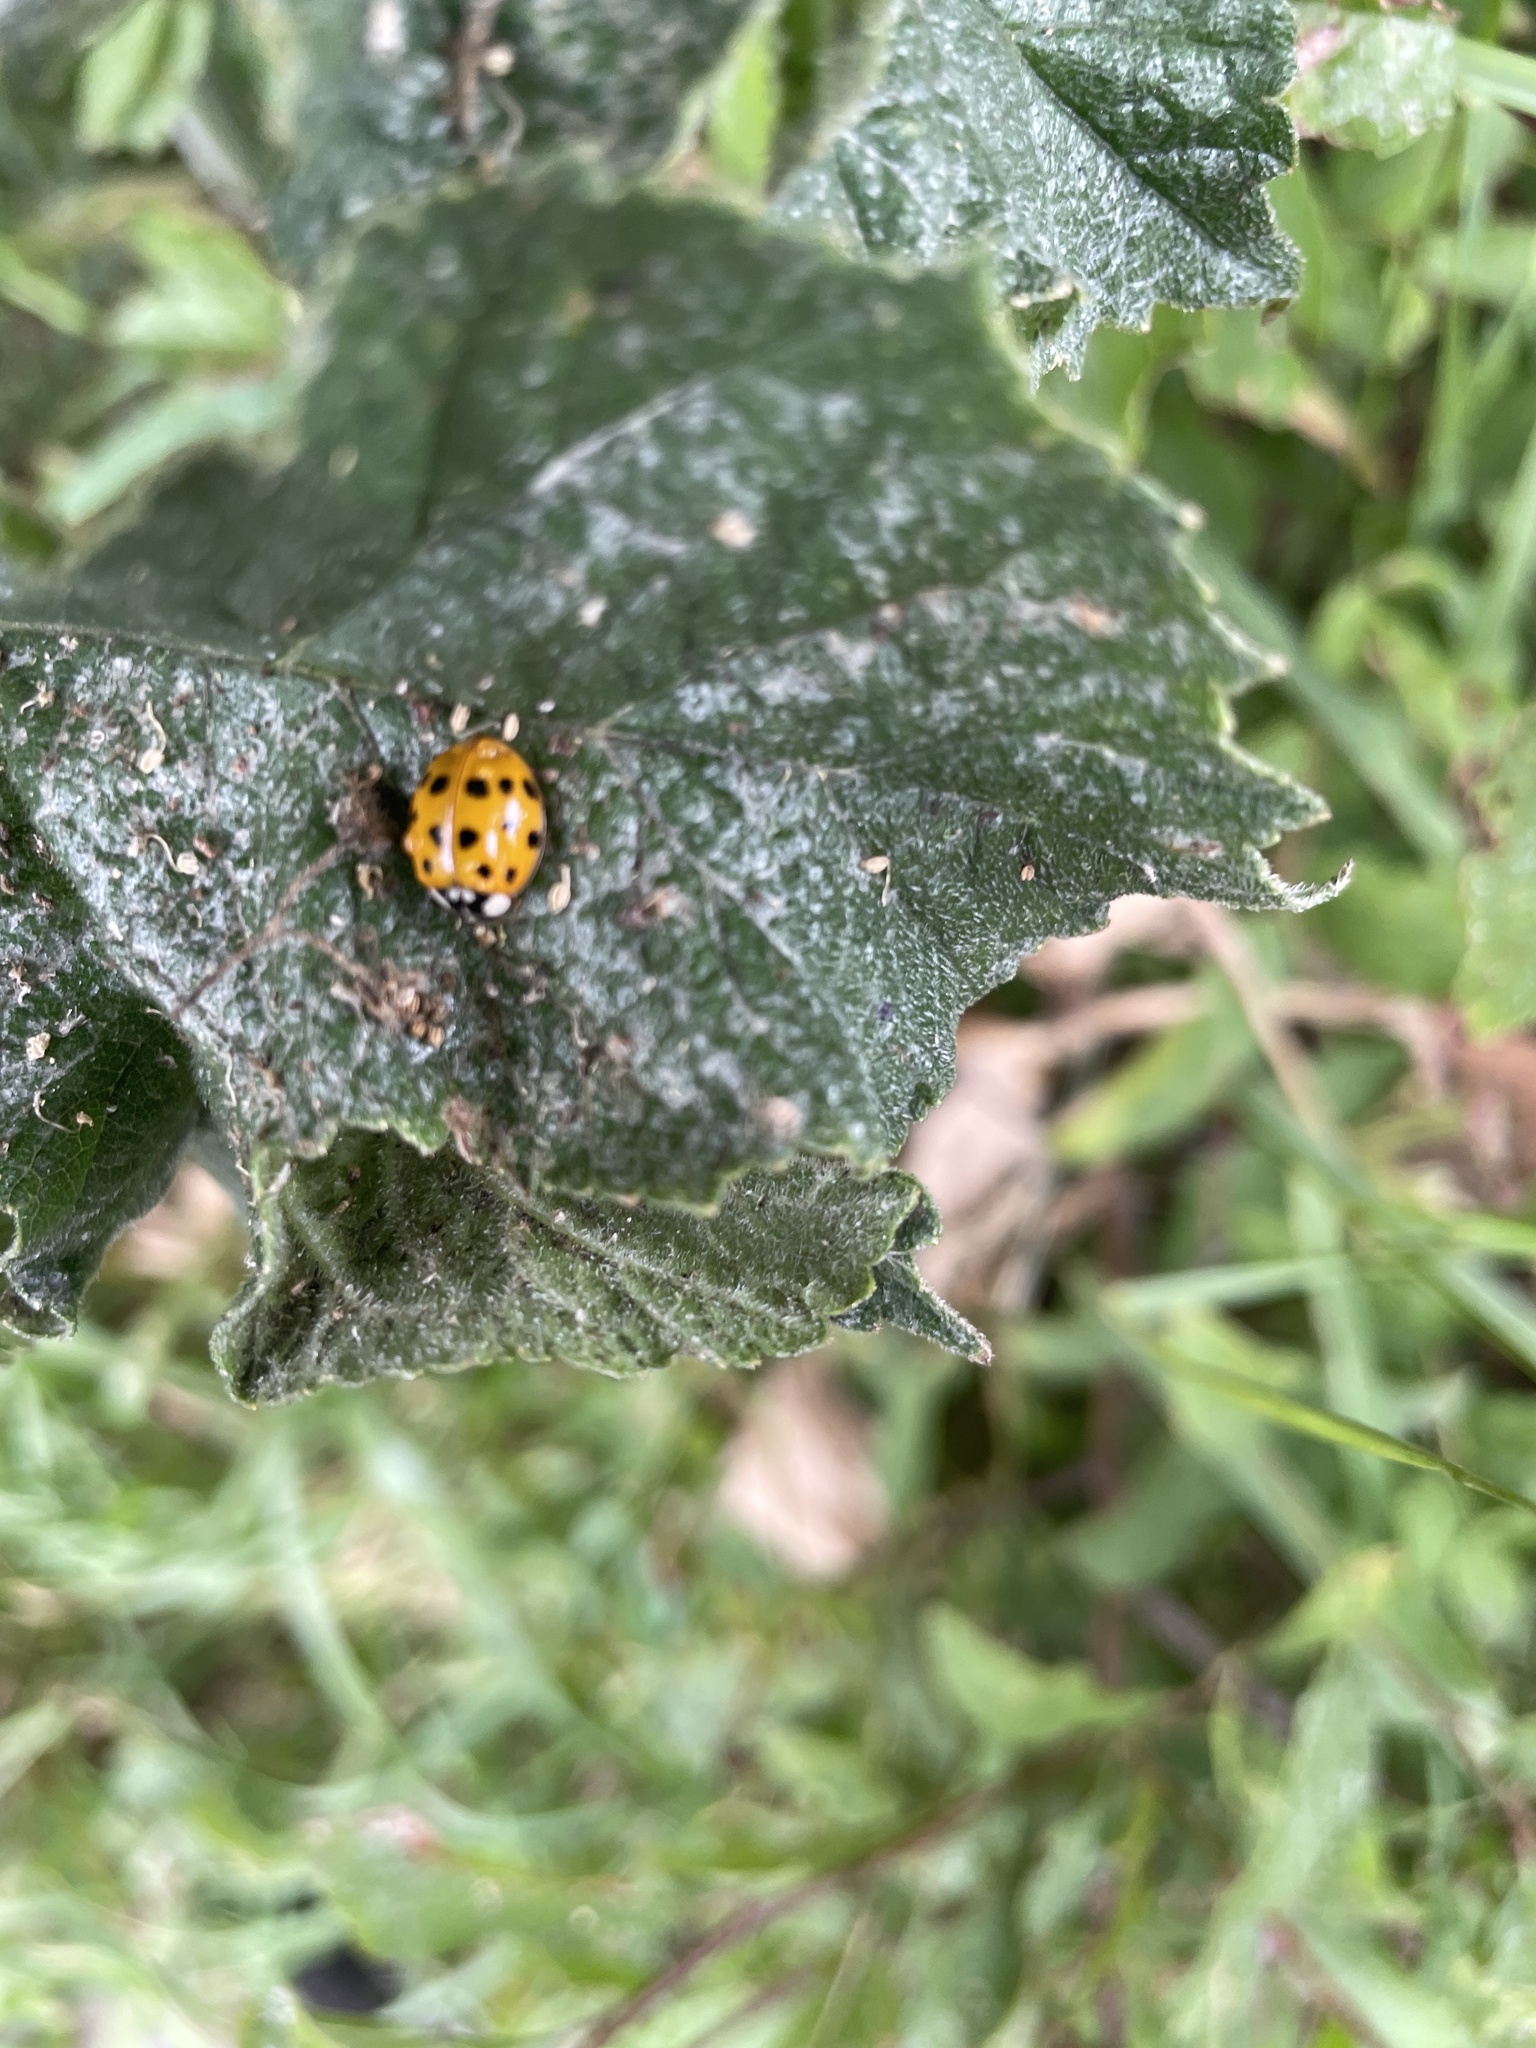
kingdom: Animalia
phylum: Arthropoda
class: Insecta
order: Coleoptera
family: Coccinellidae
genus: Harmonia
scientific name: Harmonia axyridis
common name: Harlequin ladybird
